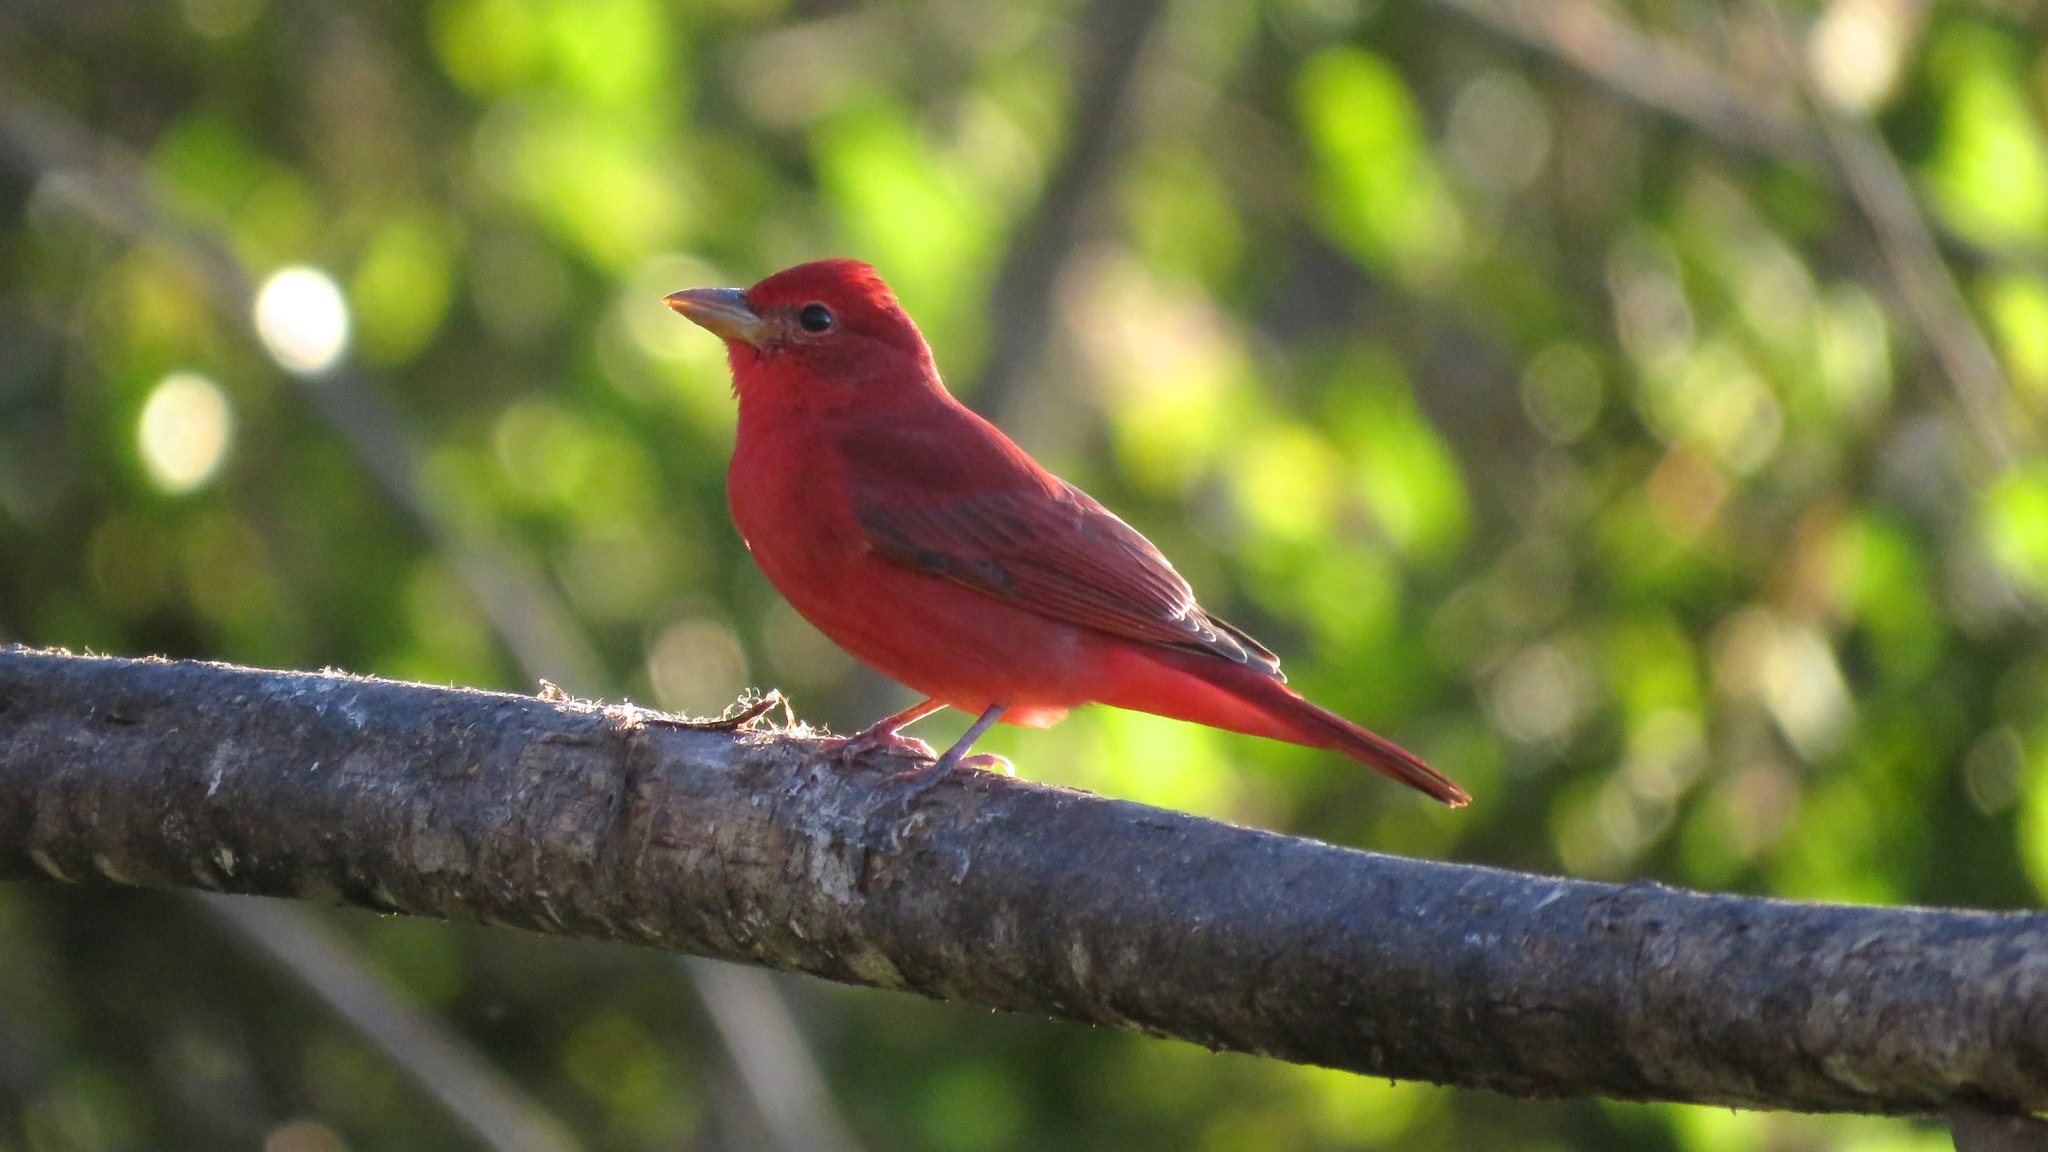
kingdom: Animalia
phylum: Chordata
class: Aves
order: Passeriformes
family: Cardinalidae
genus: Piranga
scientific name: Piranga rubra
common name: Summer tanager
